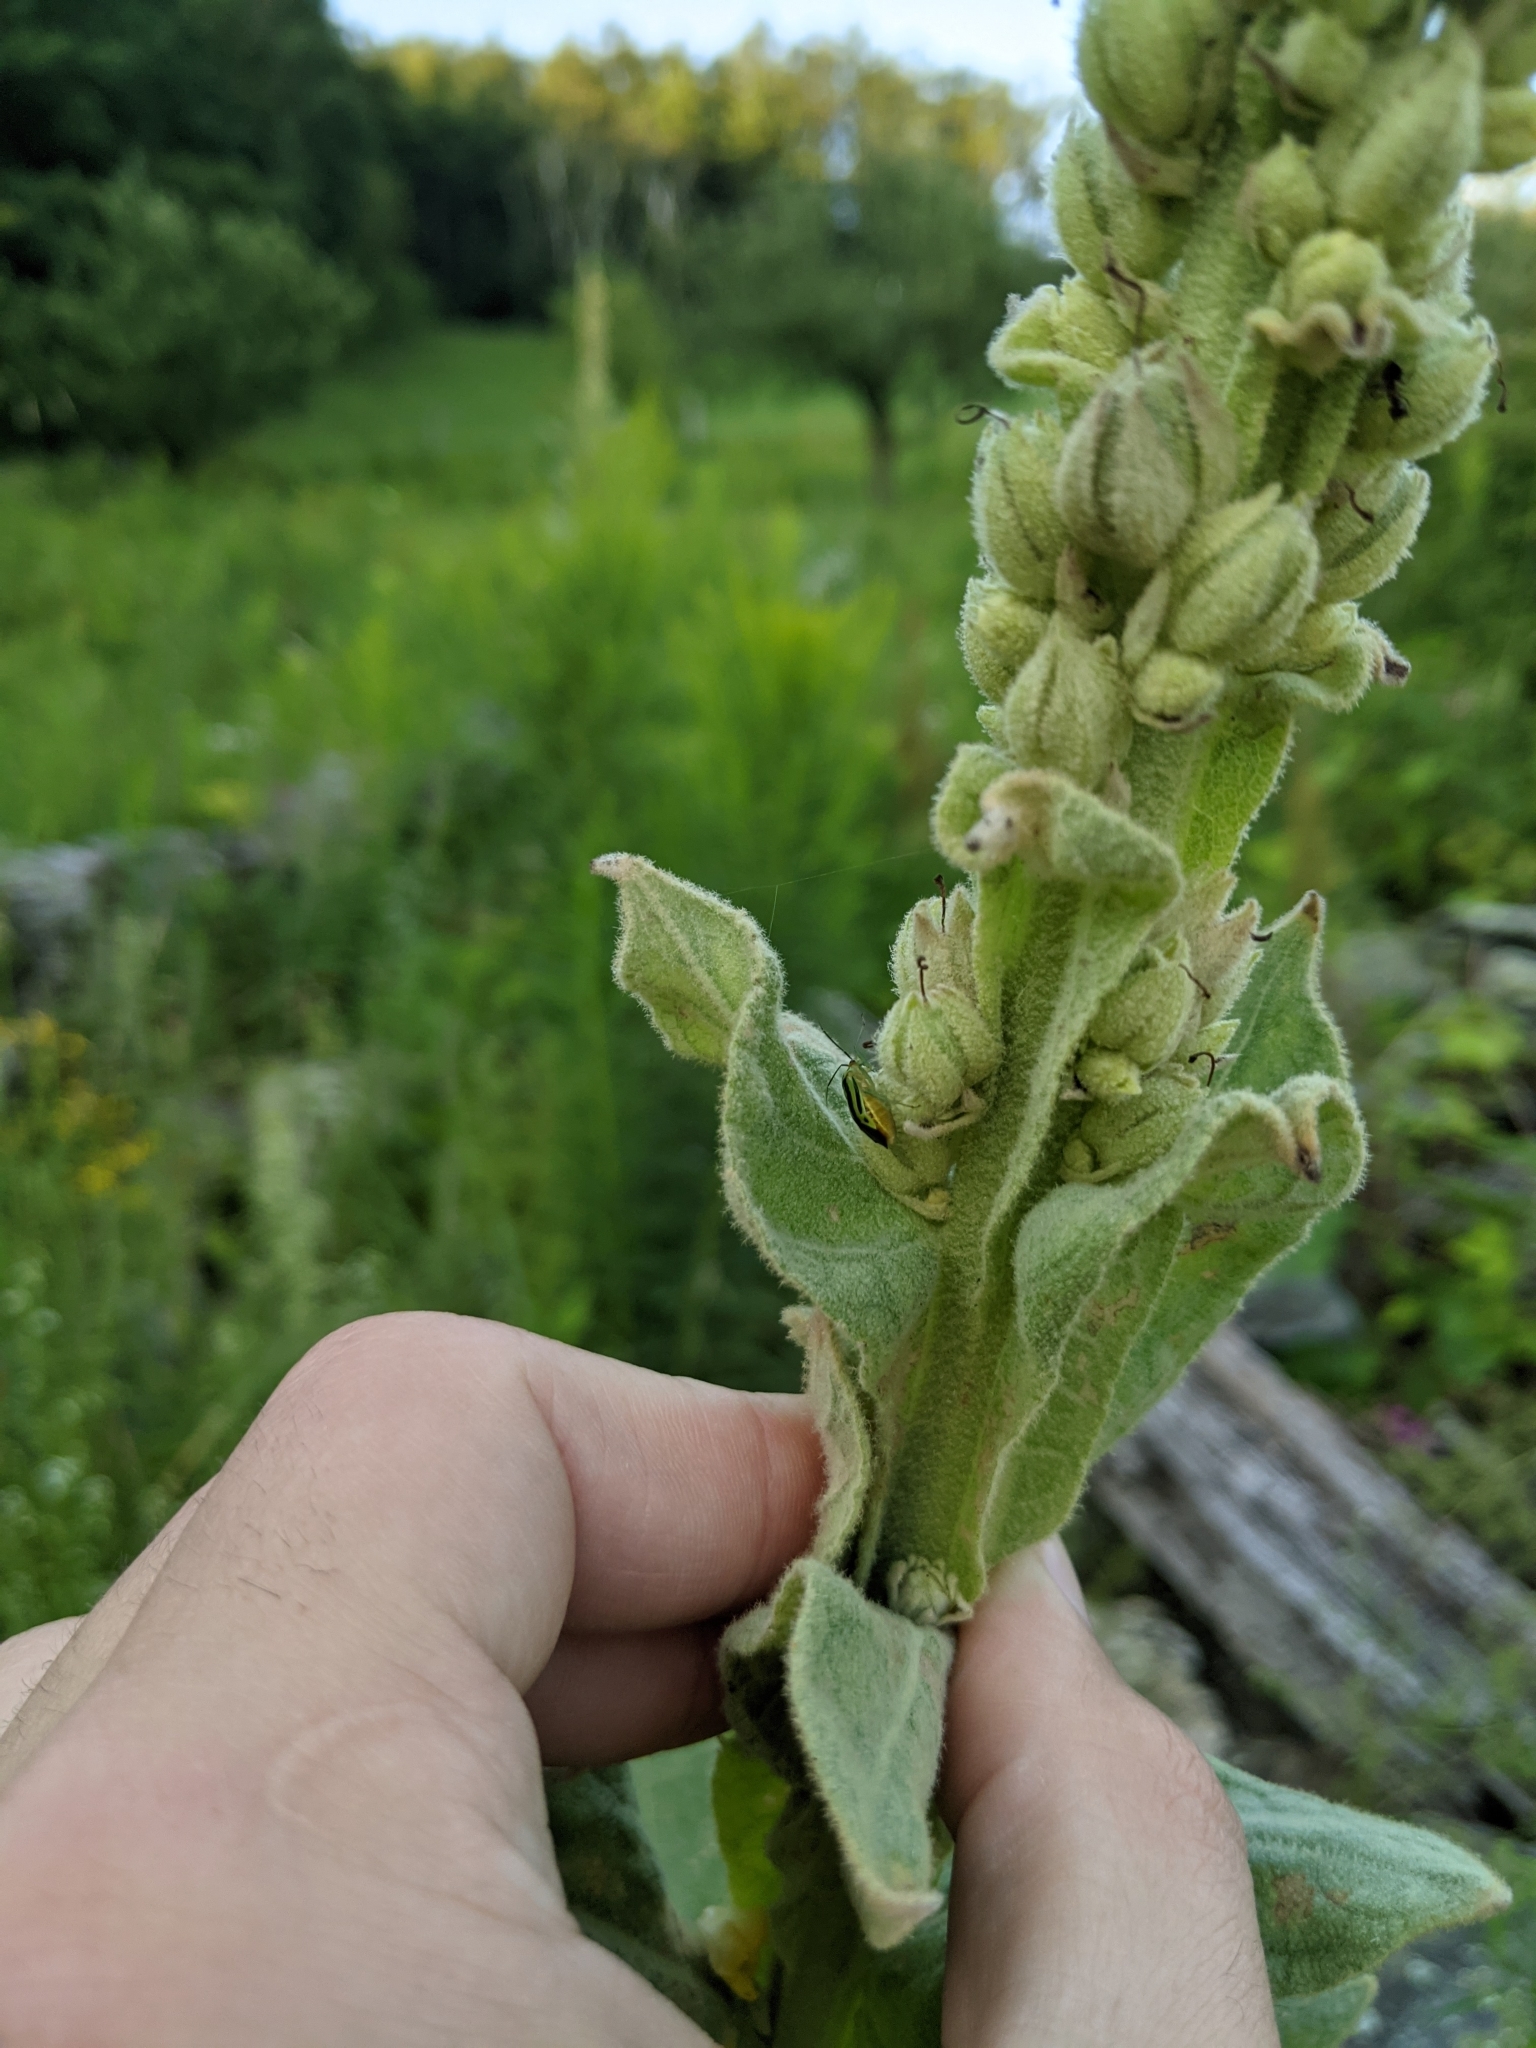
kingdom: Plantae
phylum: Tracheophyta
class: Magnoliopsida
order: Lamiales
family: Scrophulariaceae
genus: Verbascum
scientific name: Verbascum thapsus
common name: Common mullein
